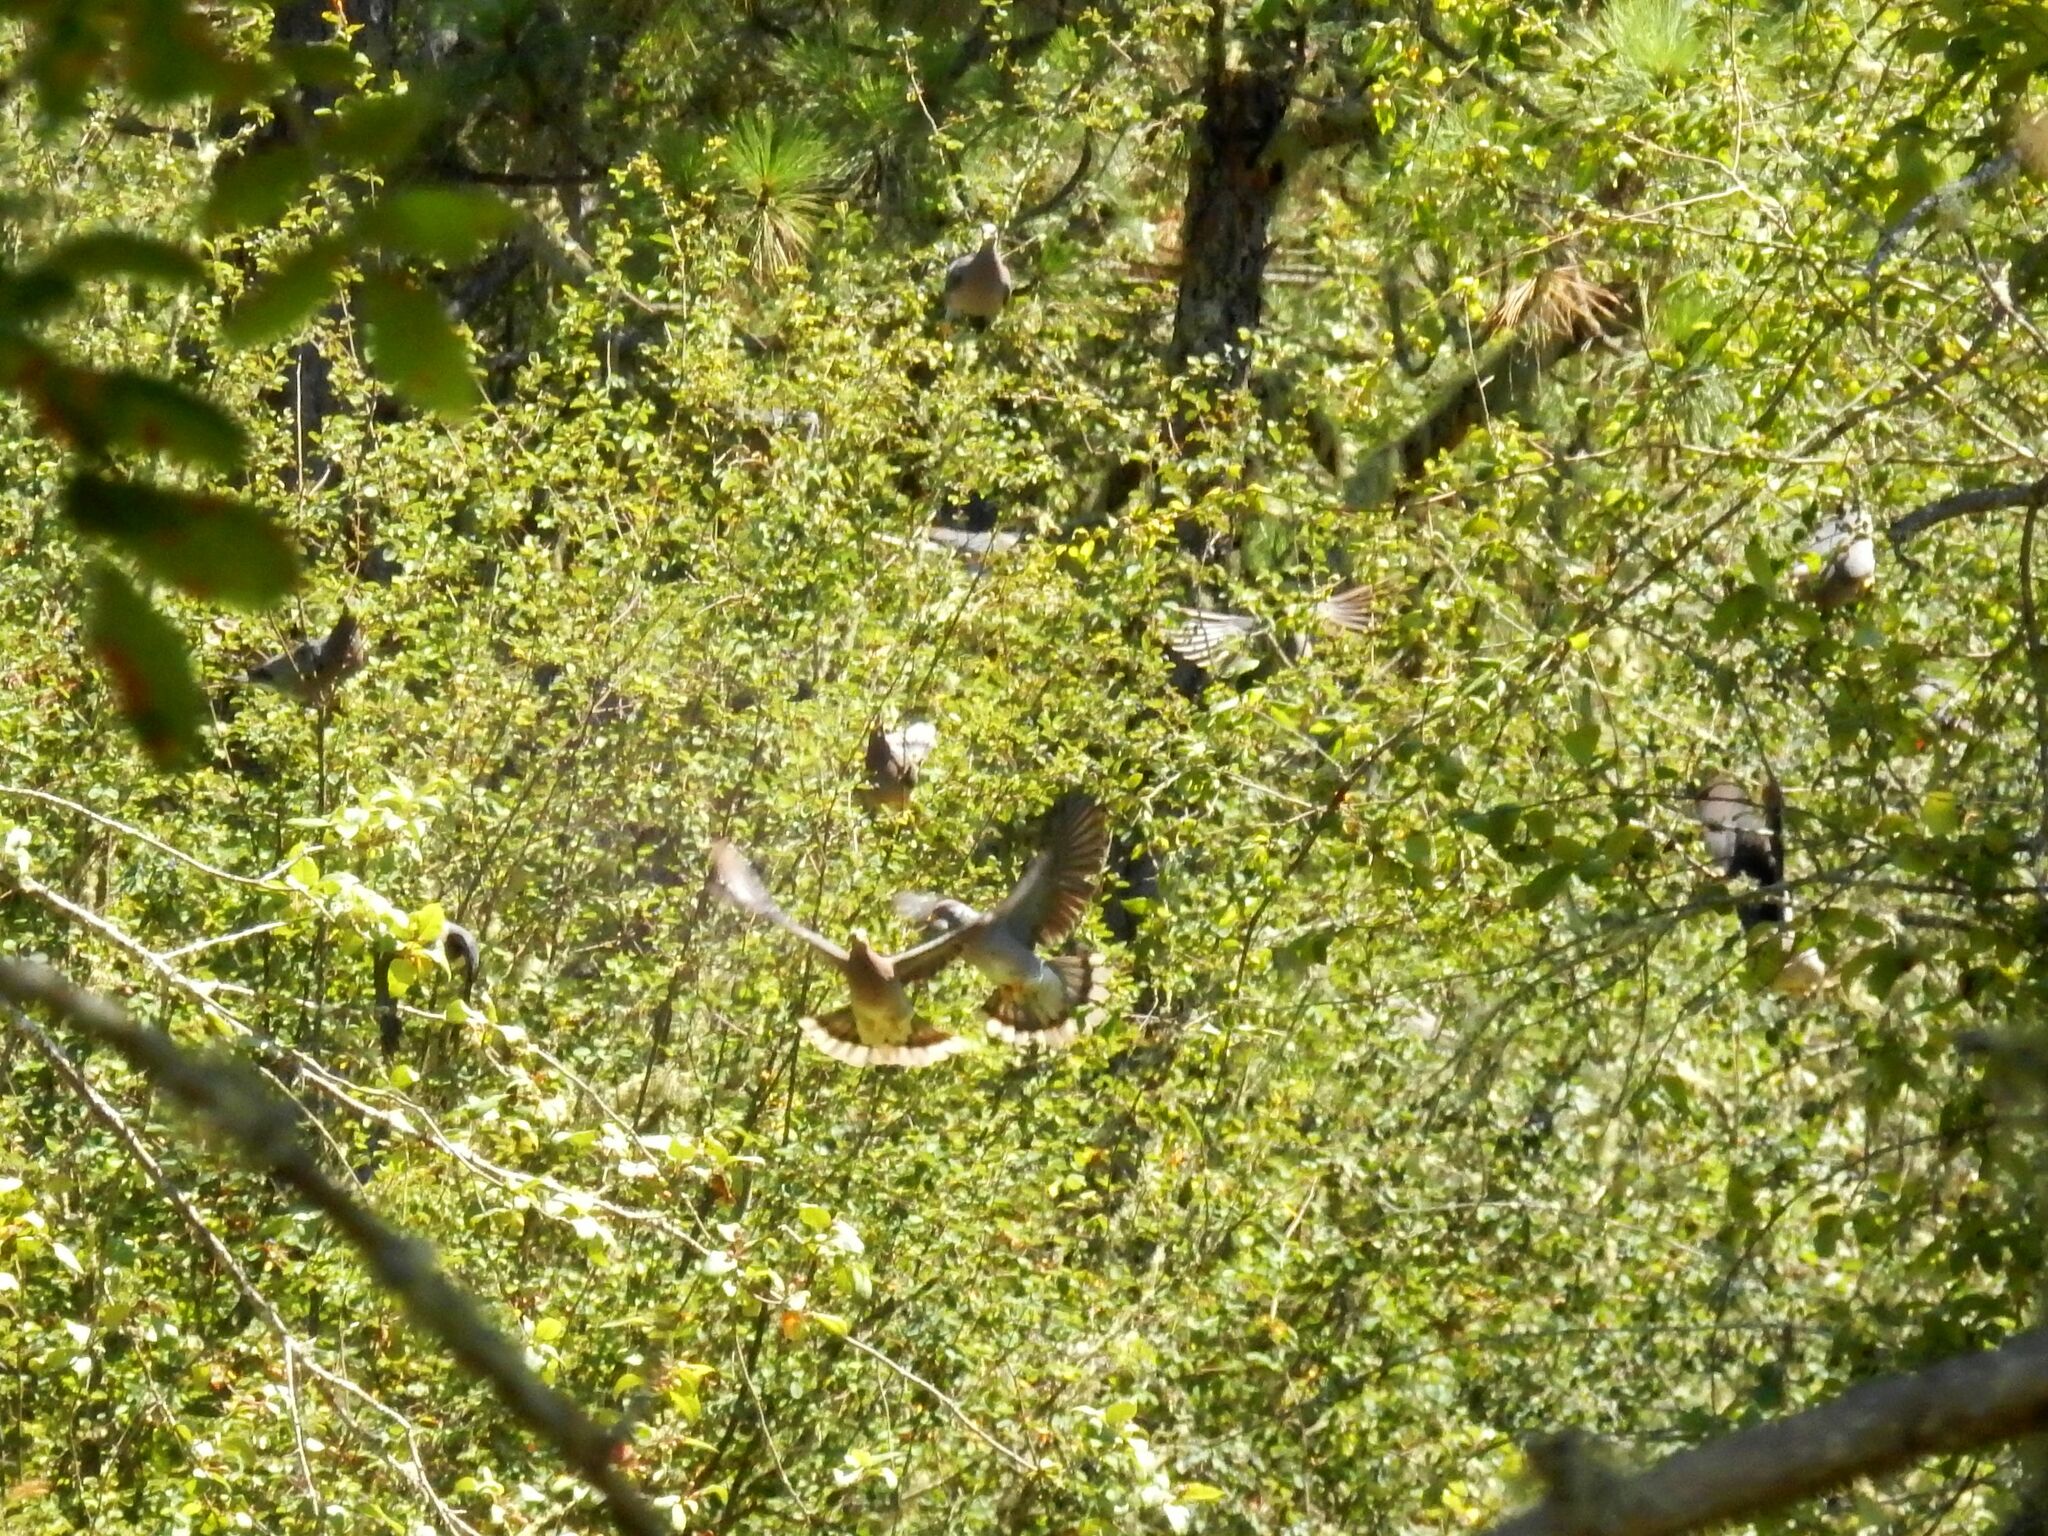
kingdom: Animalia
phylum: Chordata
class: Aves
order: Columbiformes
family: Columbidae
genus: Patagioenas
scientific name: Patagioenas fasciata
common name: Band-tailed pigeon
